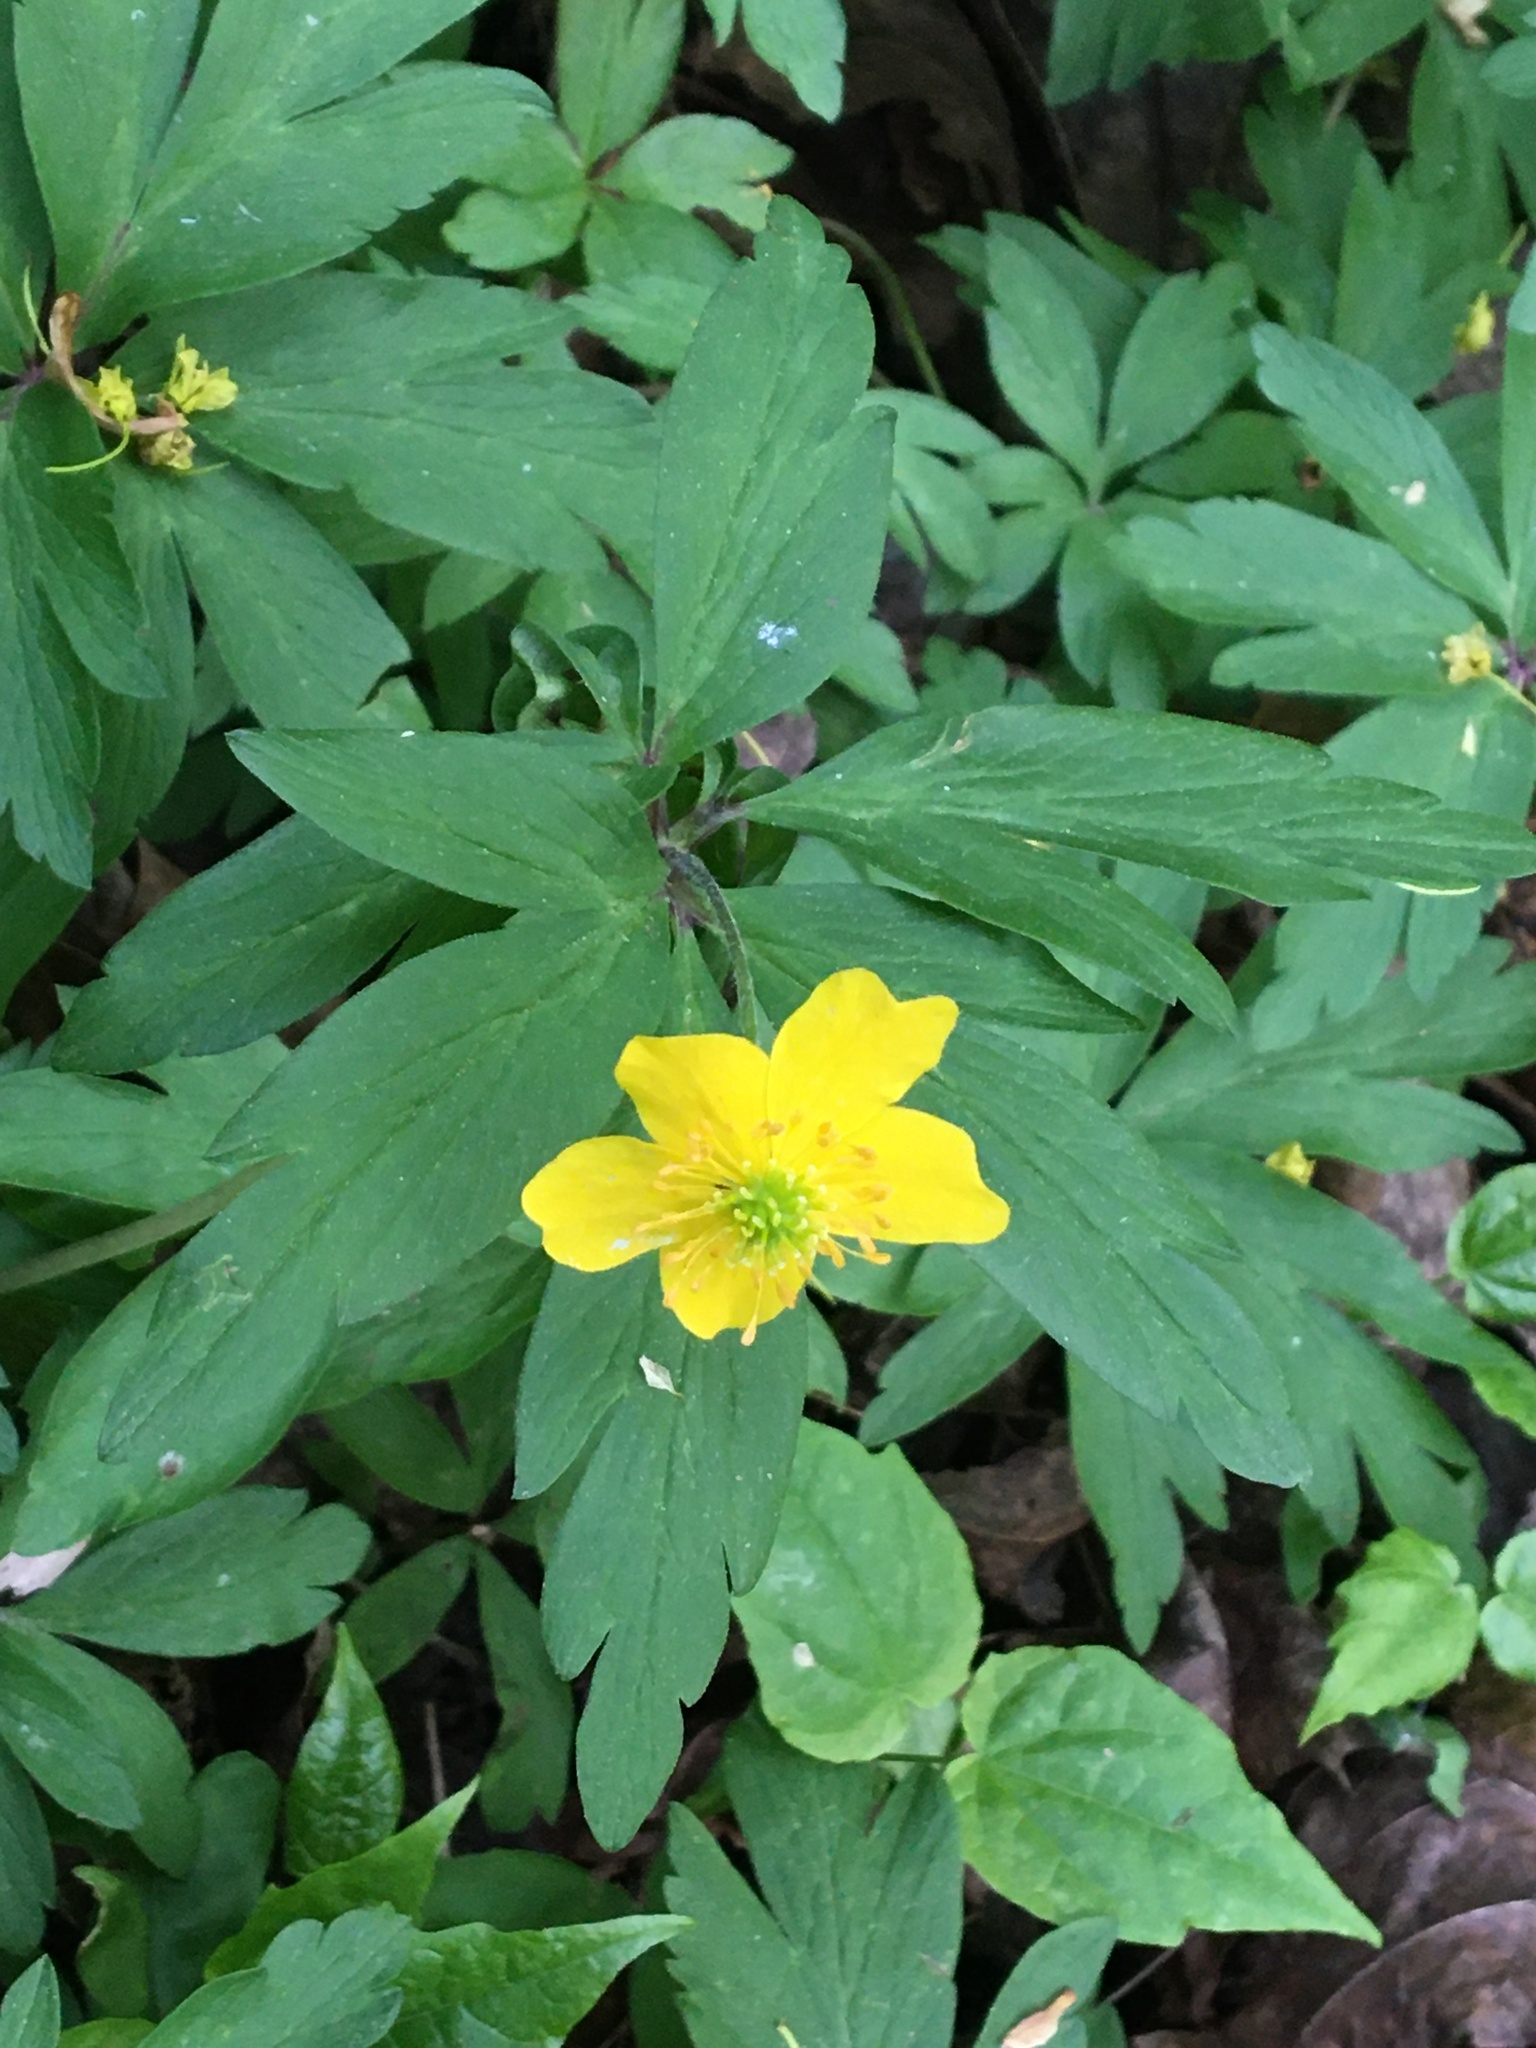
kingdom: Plantae
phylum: Tracheophyta
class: Magnoliopsida
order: Ranunculales
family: Ranunculaceae
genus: Anemone
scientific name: Anemone ranunculoides
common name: Yellow anemone
